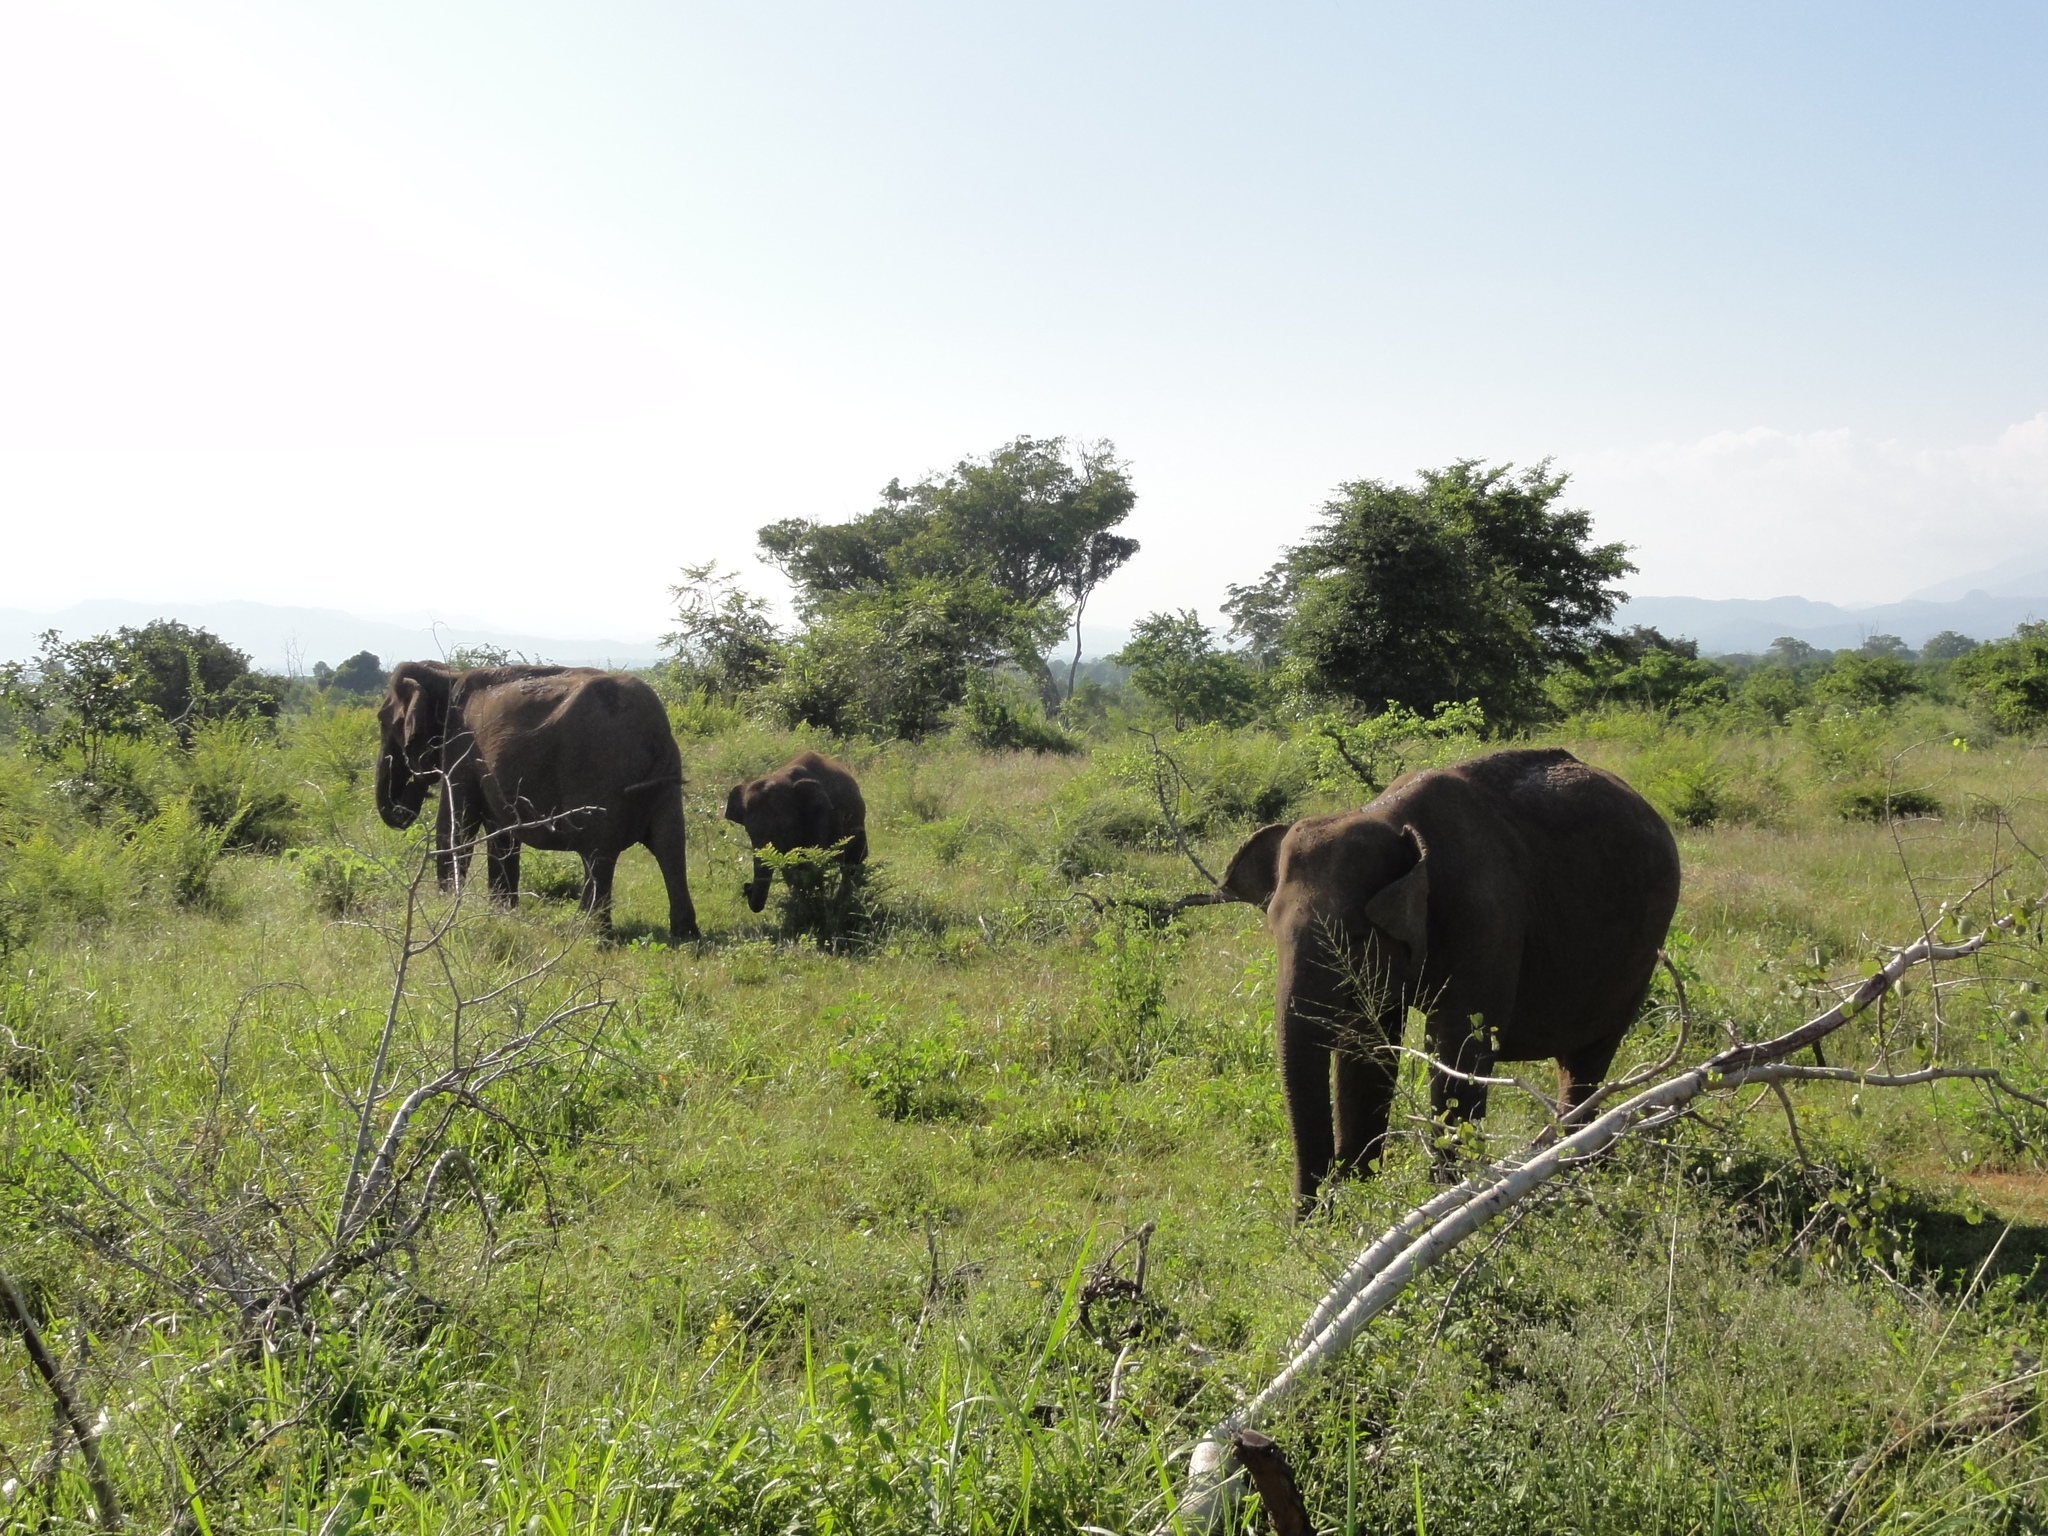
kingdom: Animalia
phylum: Chordata
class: Mammalia
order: Proboscidea
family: Elephantidae
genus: Elephas
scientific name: Elephas maximus
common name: Asian elephant
